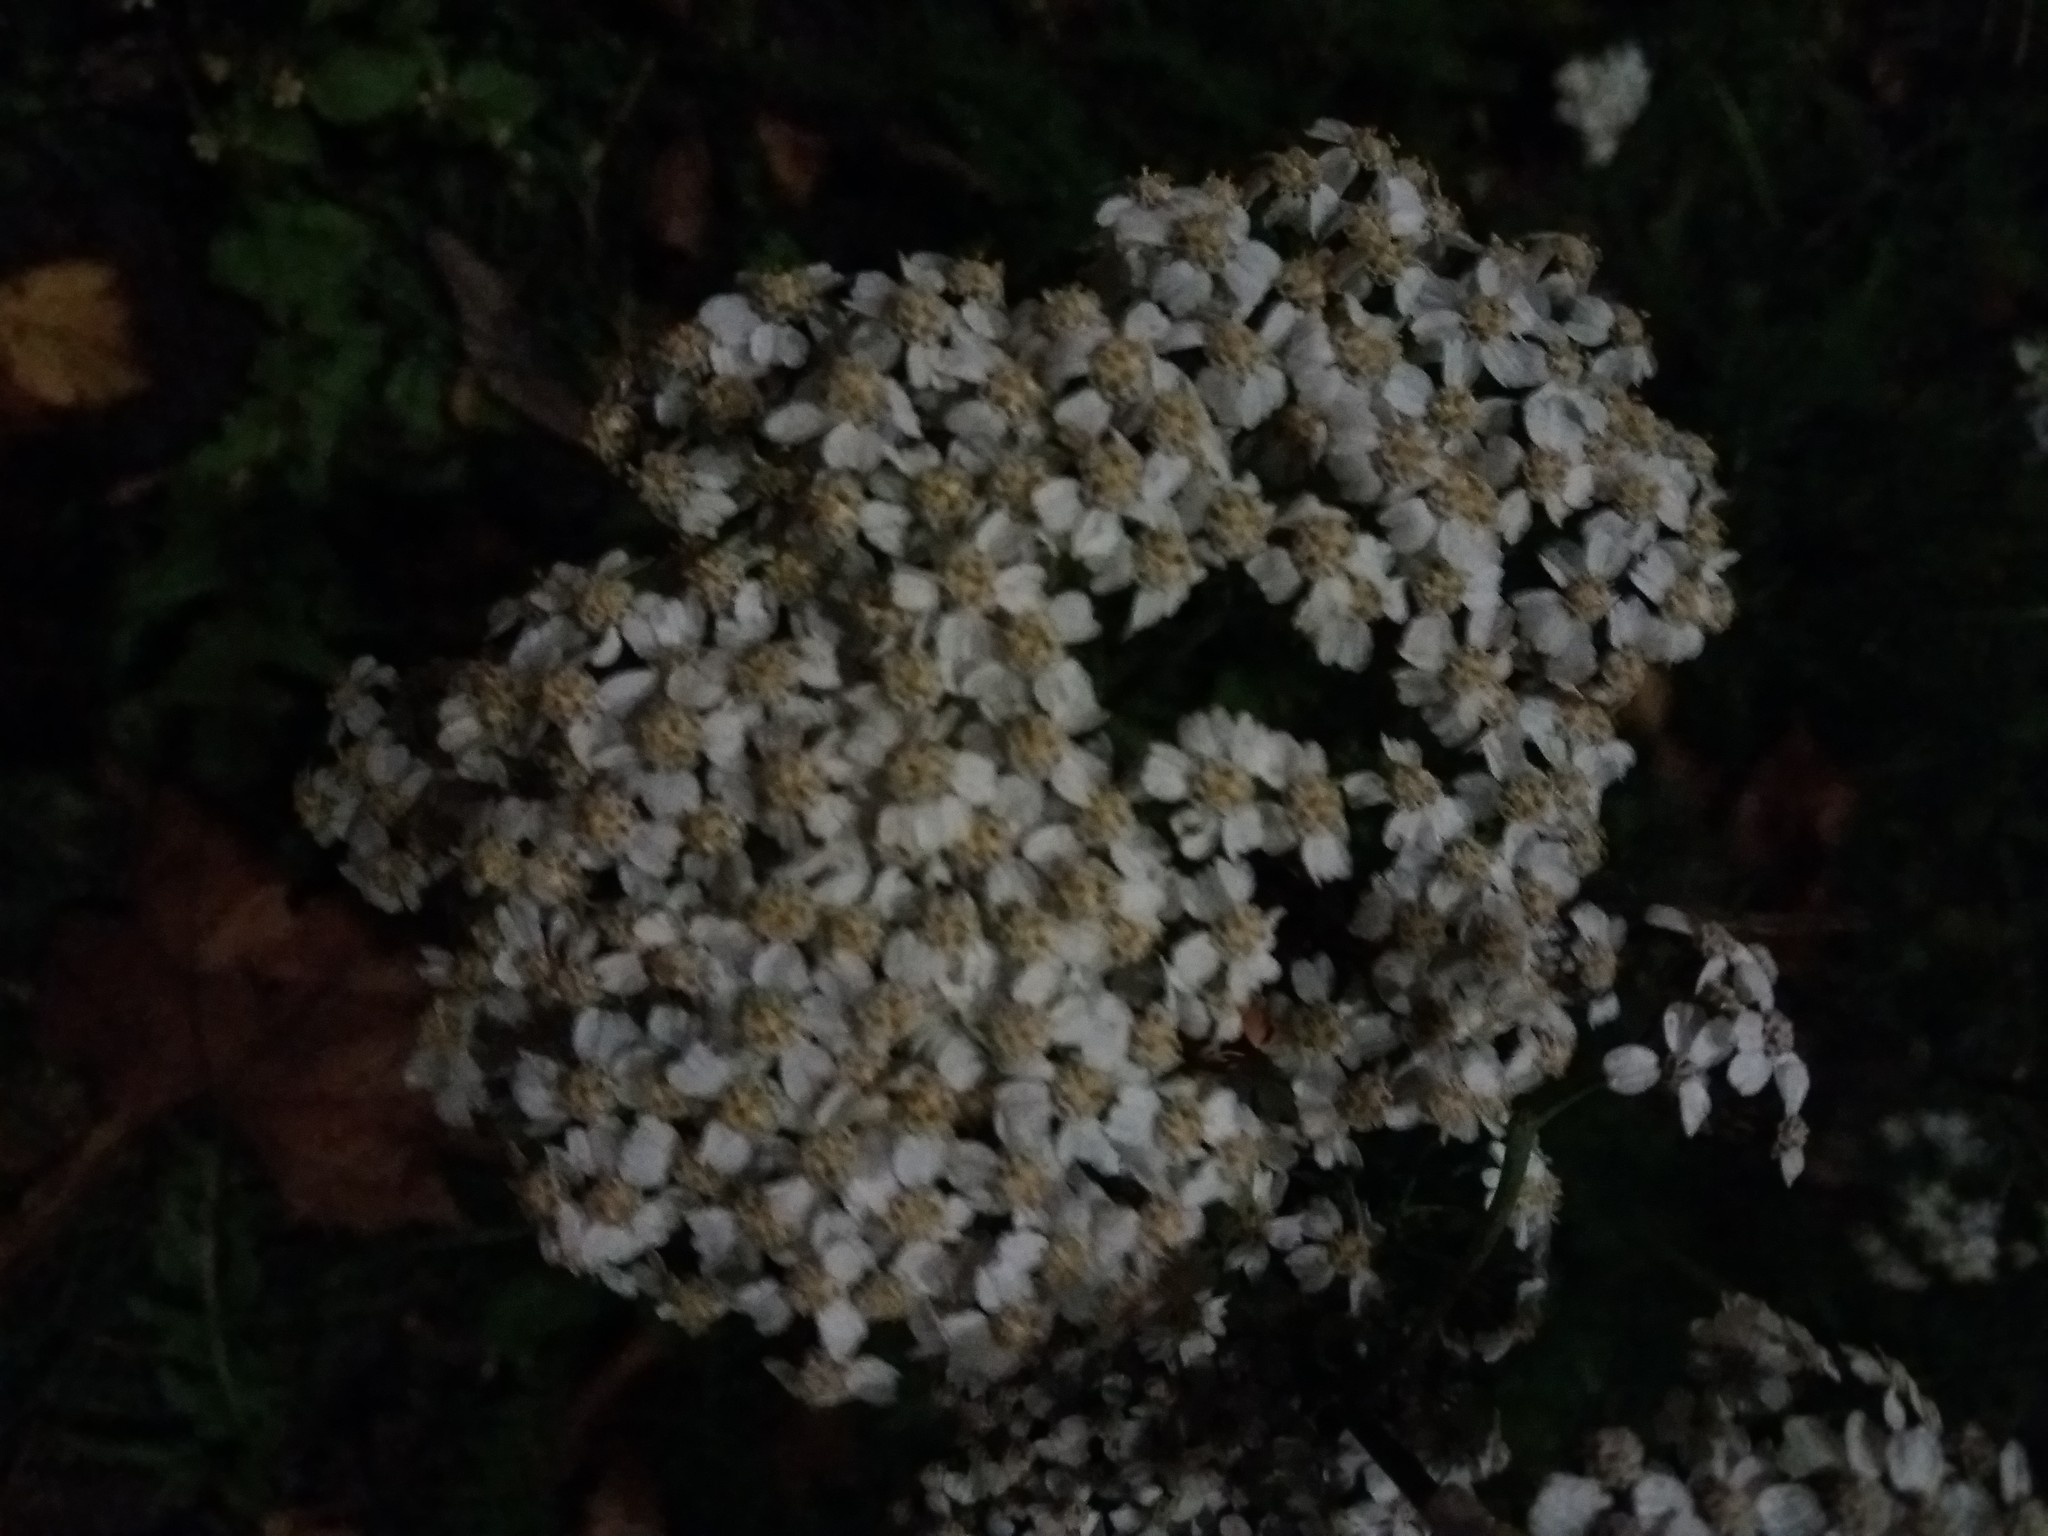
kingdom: Plantae
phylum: Tracheophyta
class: Magnoliopsida
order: Asterales
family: Asteraceae
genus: Achillea
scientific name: Achillea millefolium
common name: Yarrow
